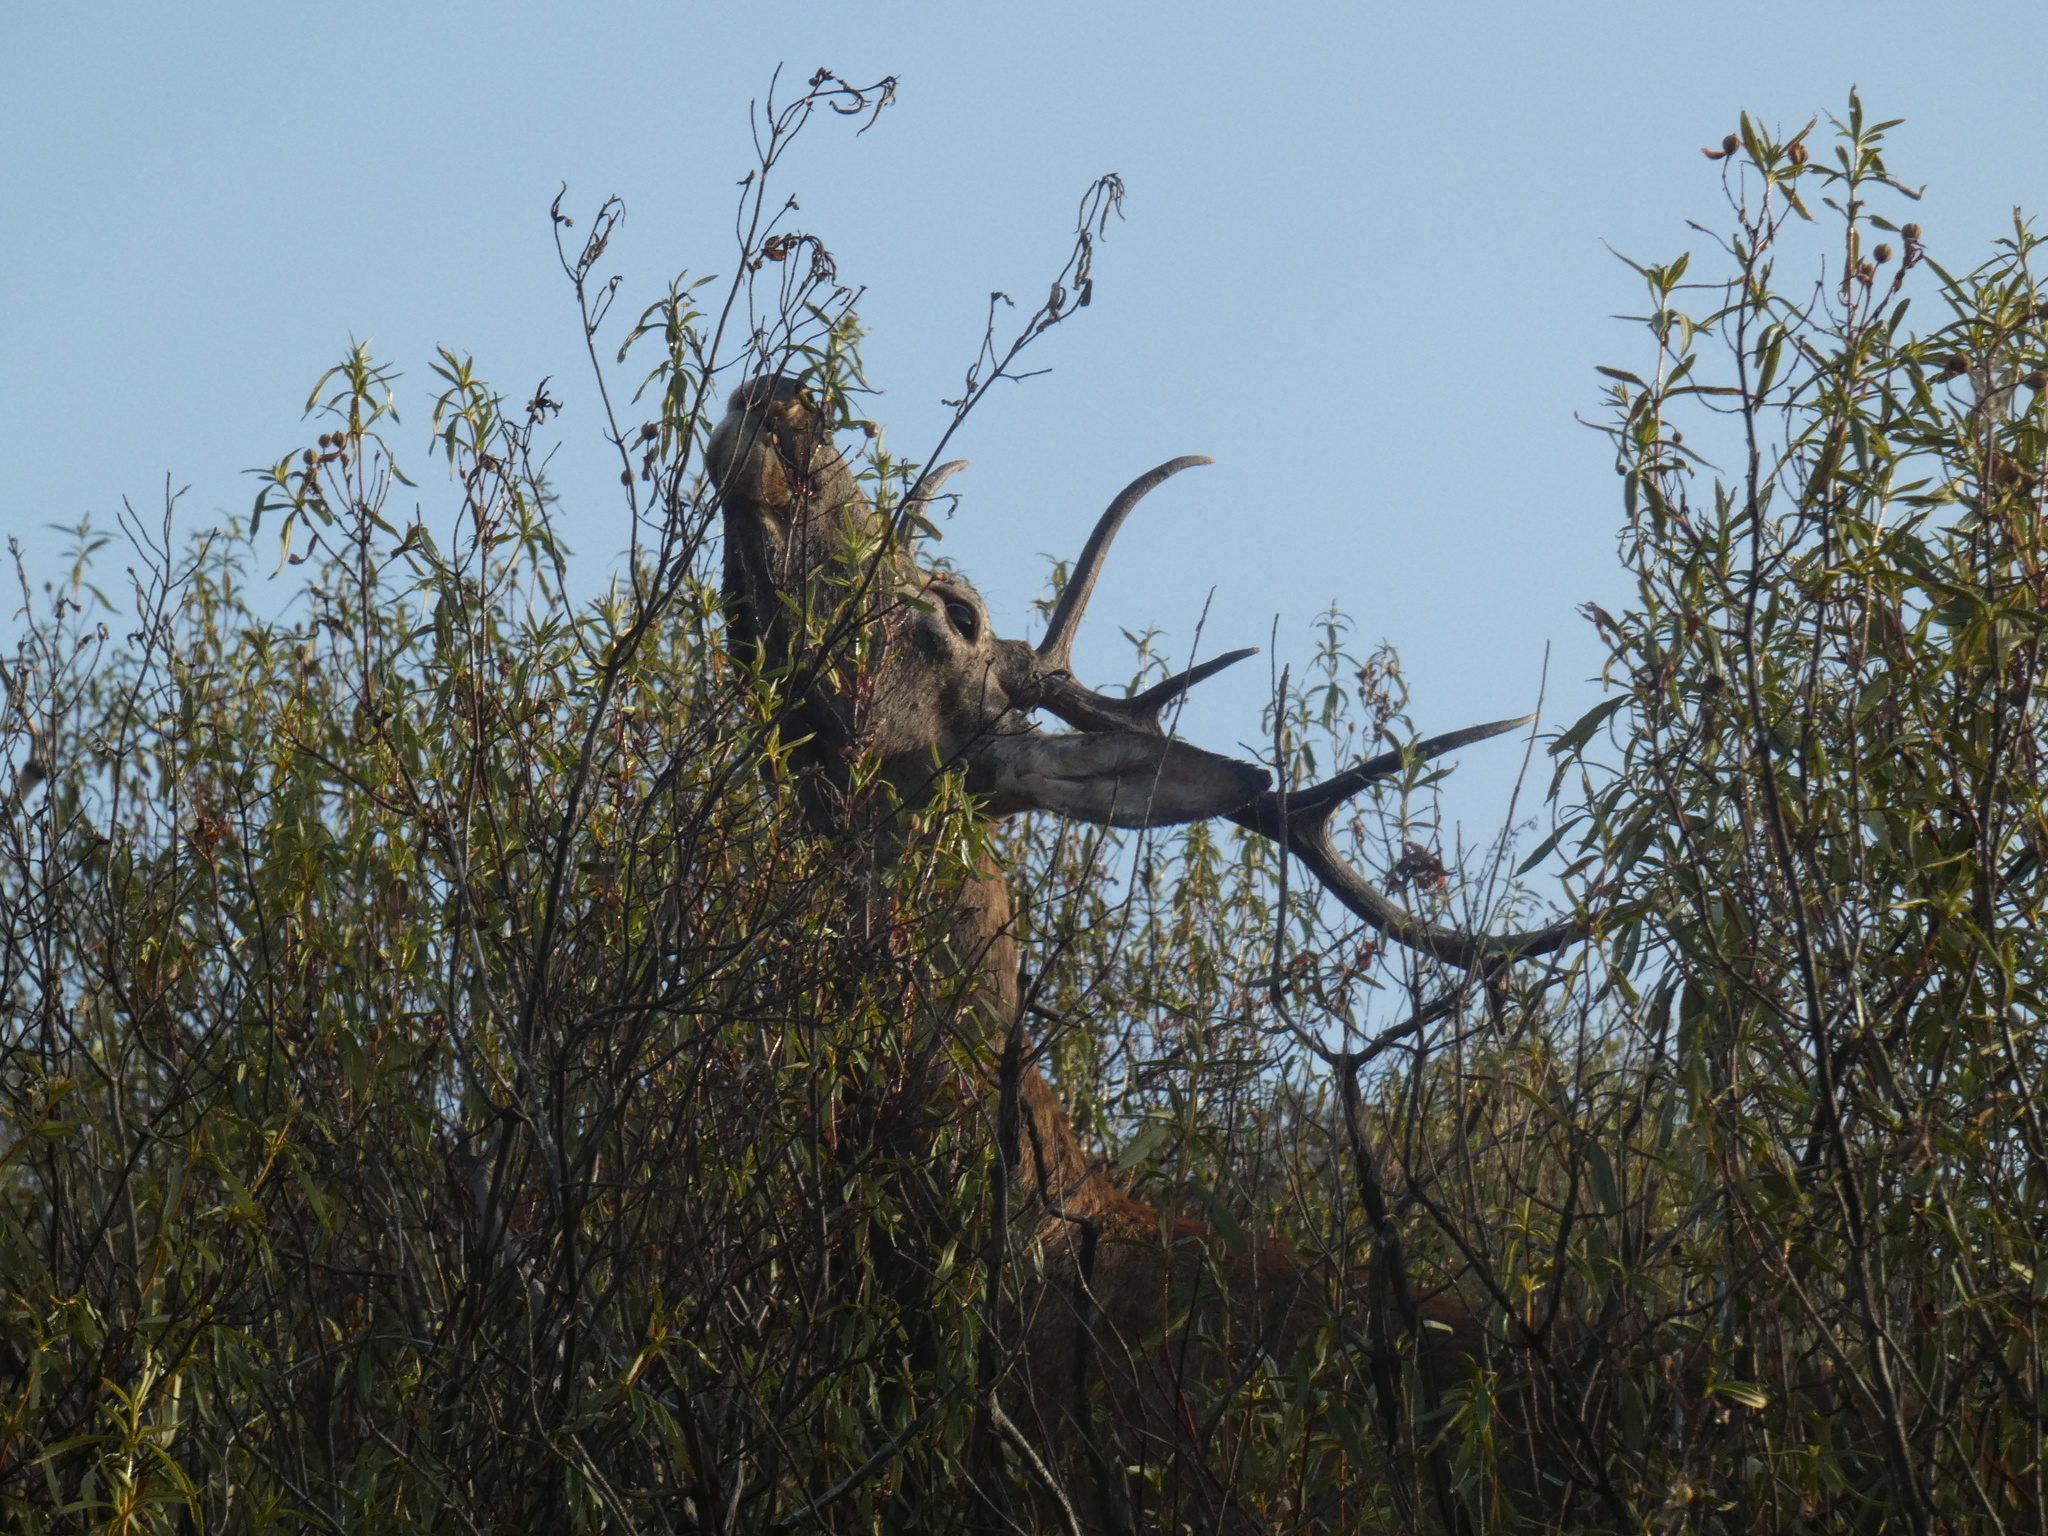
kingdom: Animalia
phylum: Chordata
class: Mammalia
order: Artiodactyla
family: Cervidae
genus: Cervus
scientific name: Cervus elaphus
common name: Red deer
